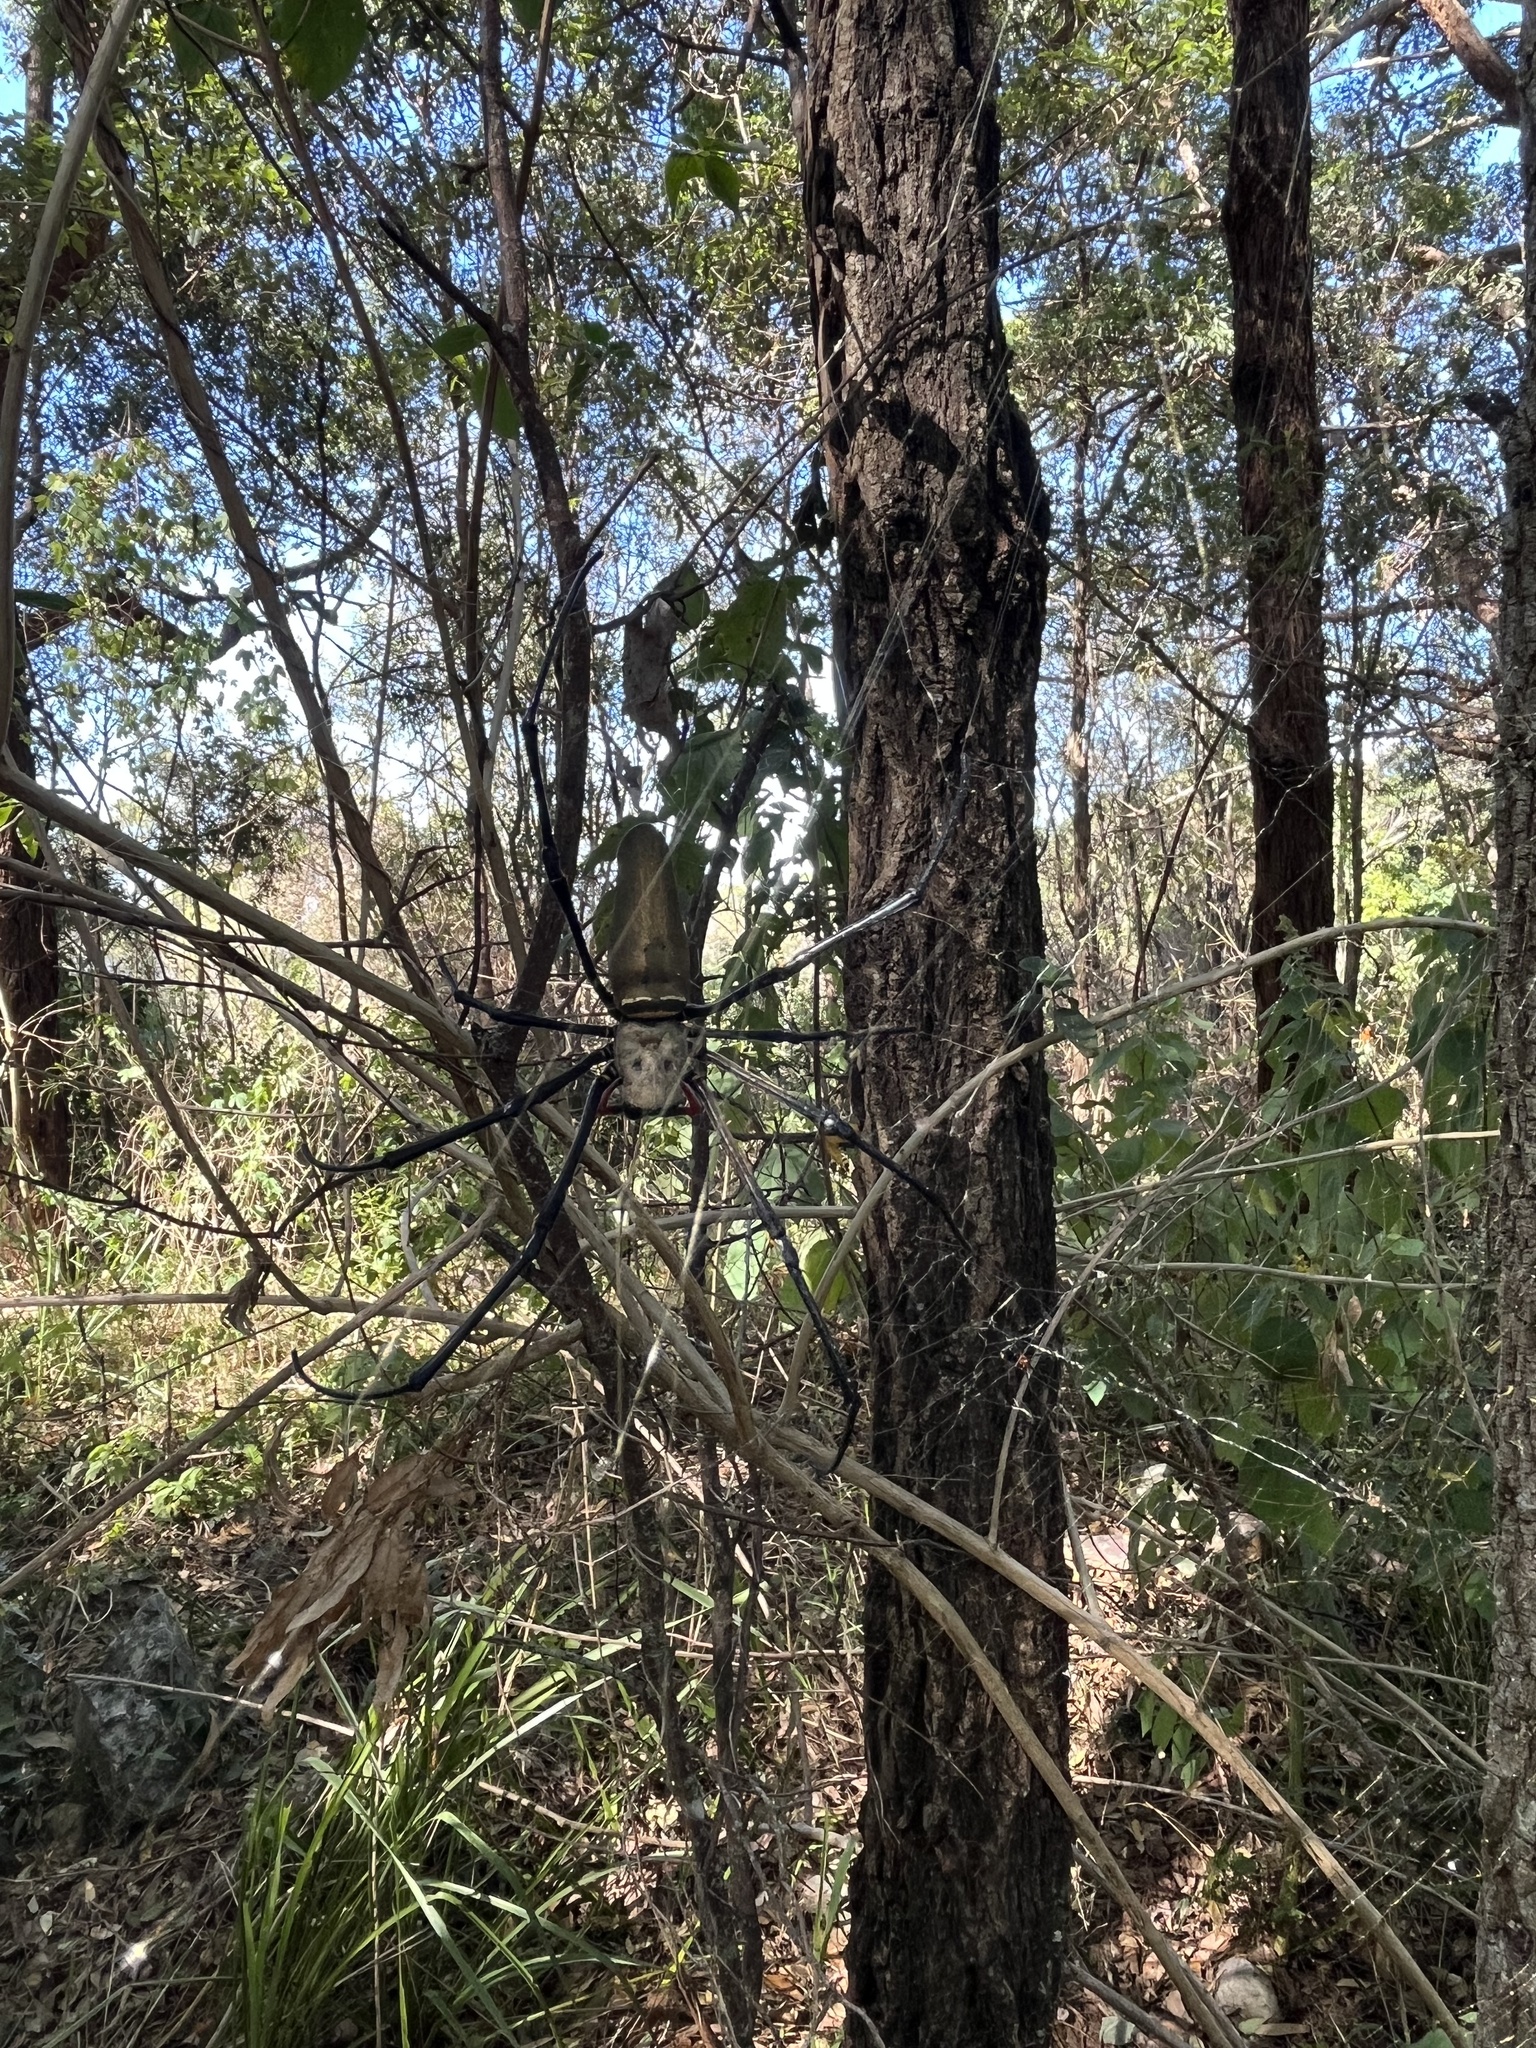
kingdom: Animalia
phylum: Arthropoda
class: Arachnida
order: Araneae
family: Araneidae
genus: Nephila
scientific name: Nephila pilipes
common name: Giant golden orb weaver
